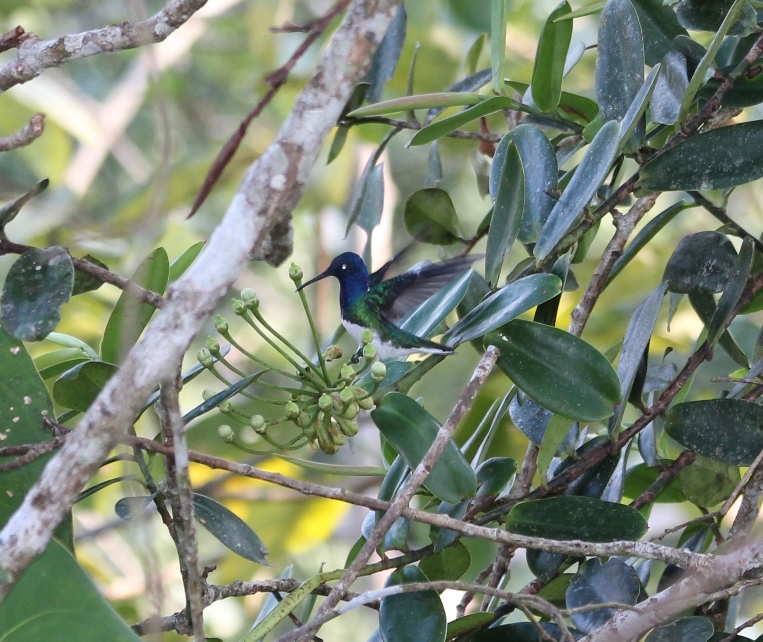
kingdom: Animalia
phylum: Chordata
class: Aves
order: Apodiformes
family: Trochilidae
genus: Florisuga
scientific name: Florisuga mellivora
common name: White-necked jacobin
